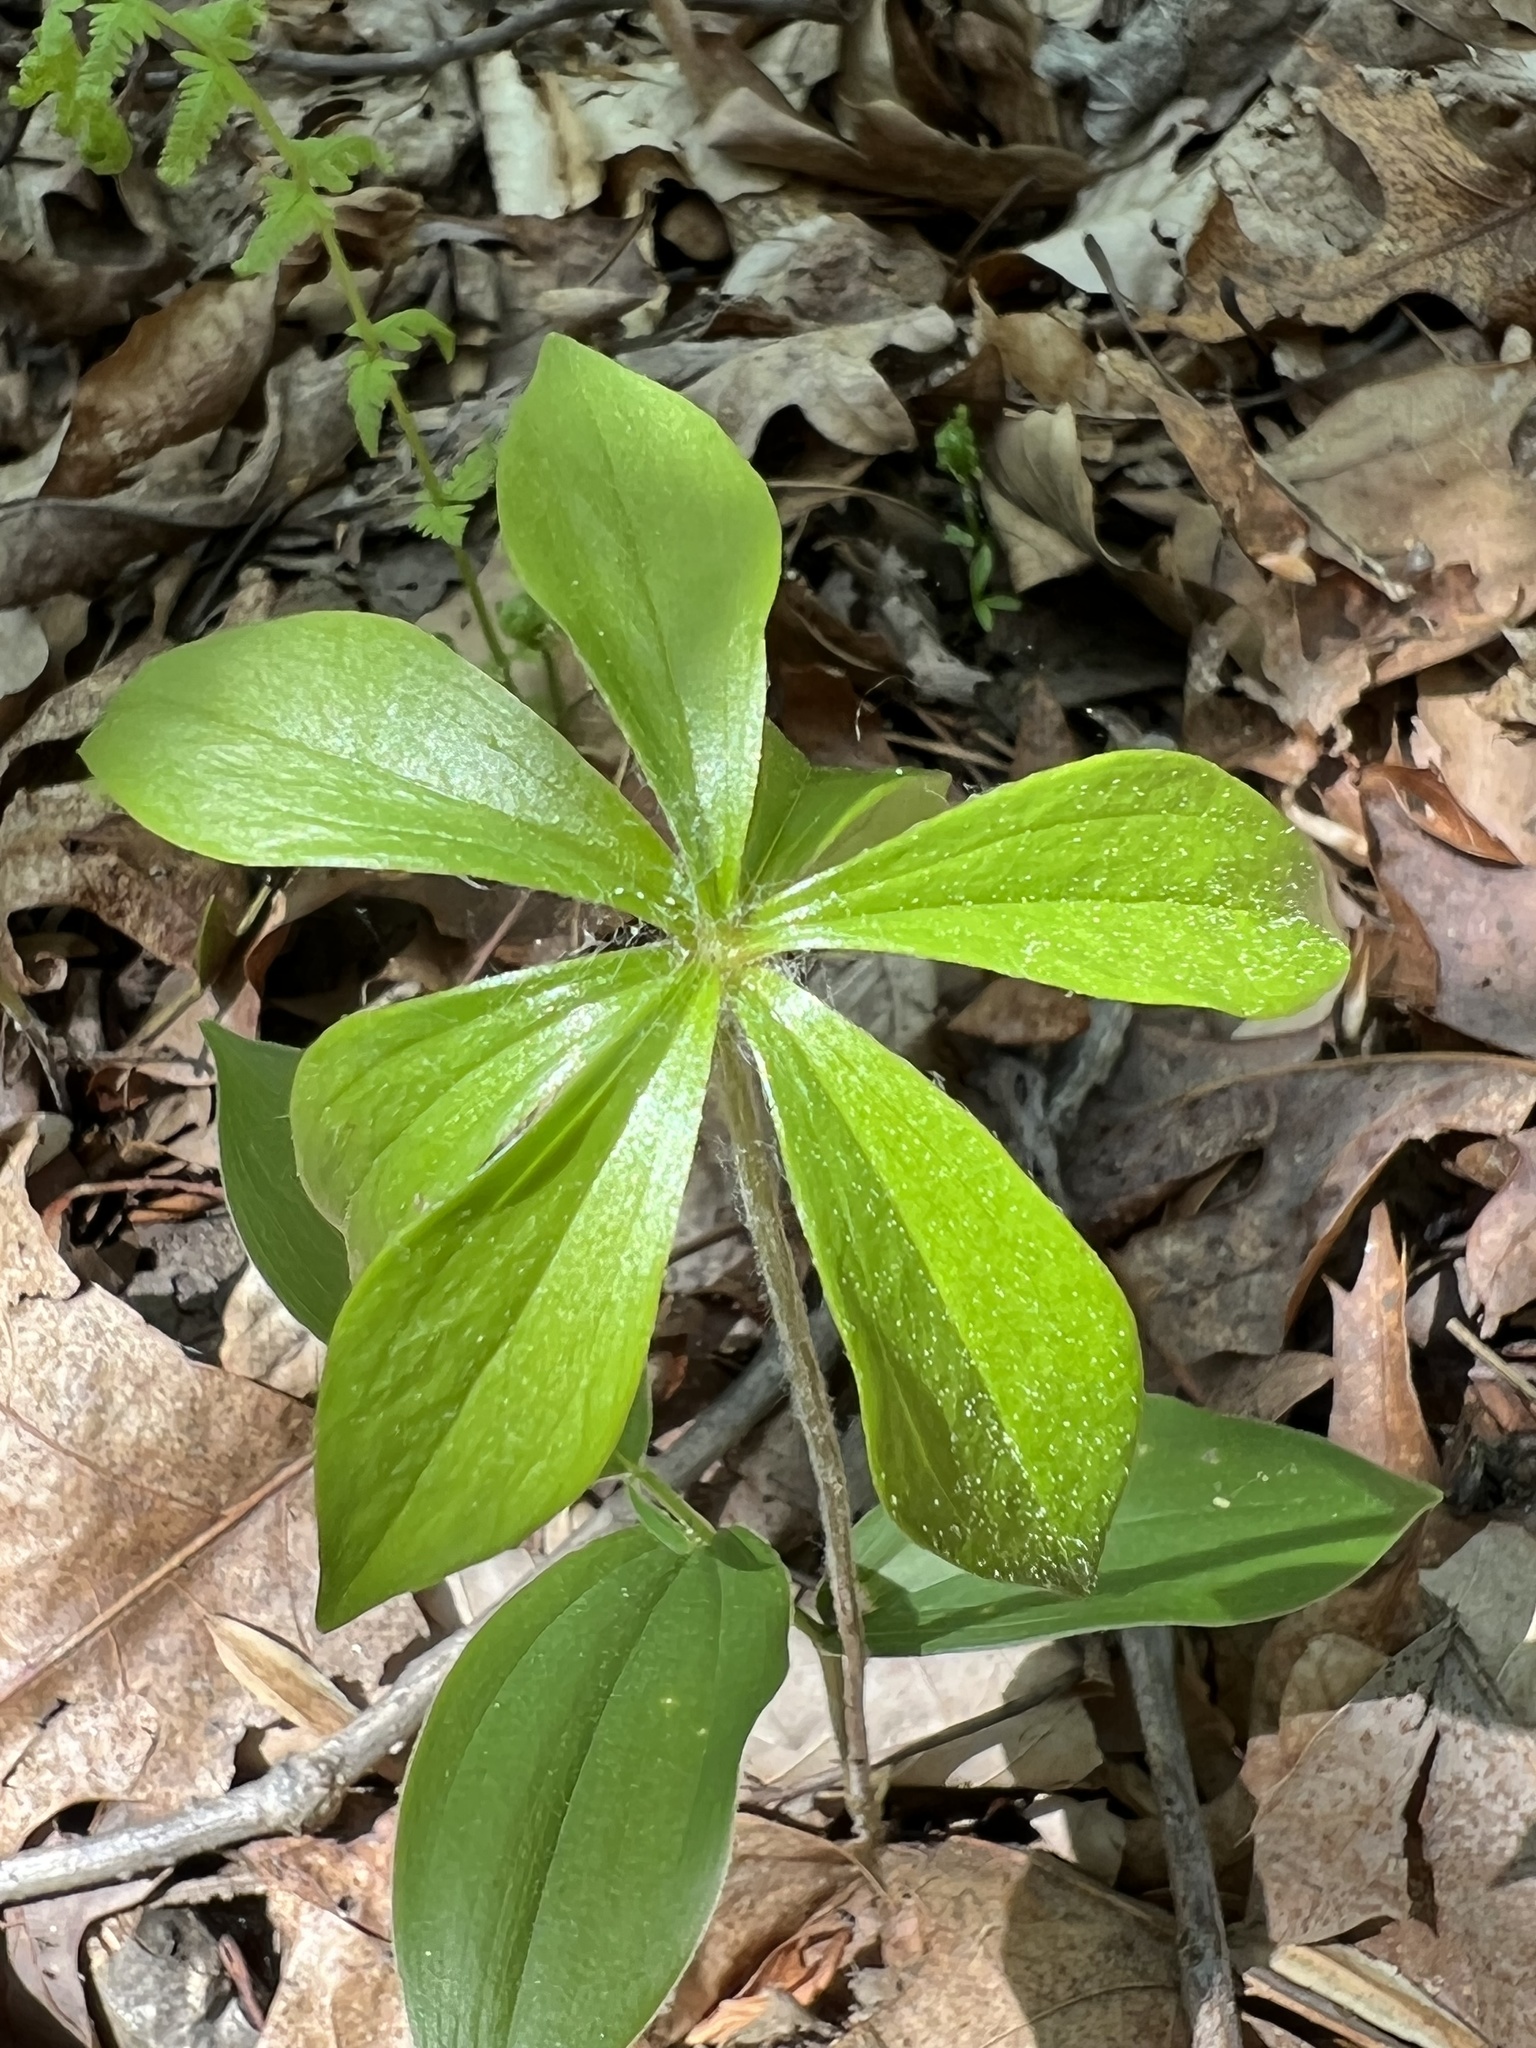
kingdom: Plantae
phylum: Tracheophyta
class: Liliopsida
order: Liliales
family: Liliaceae
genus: Medeola
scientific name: Medeola virginiana
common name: Indian cucumber-root
